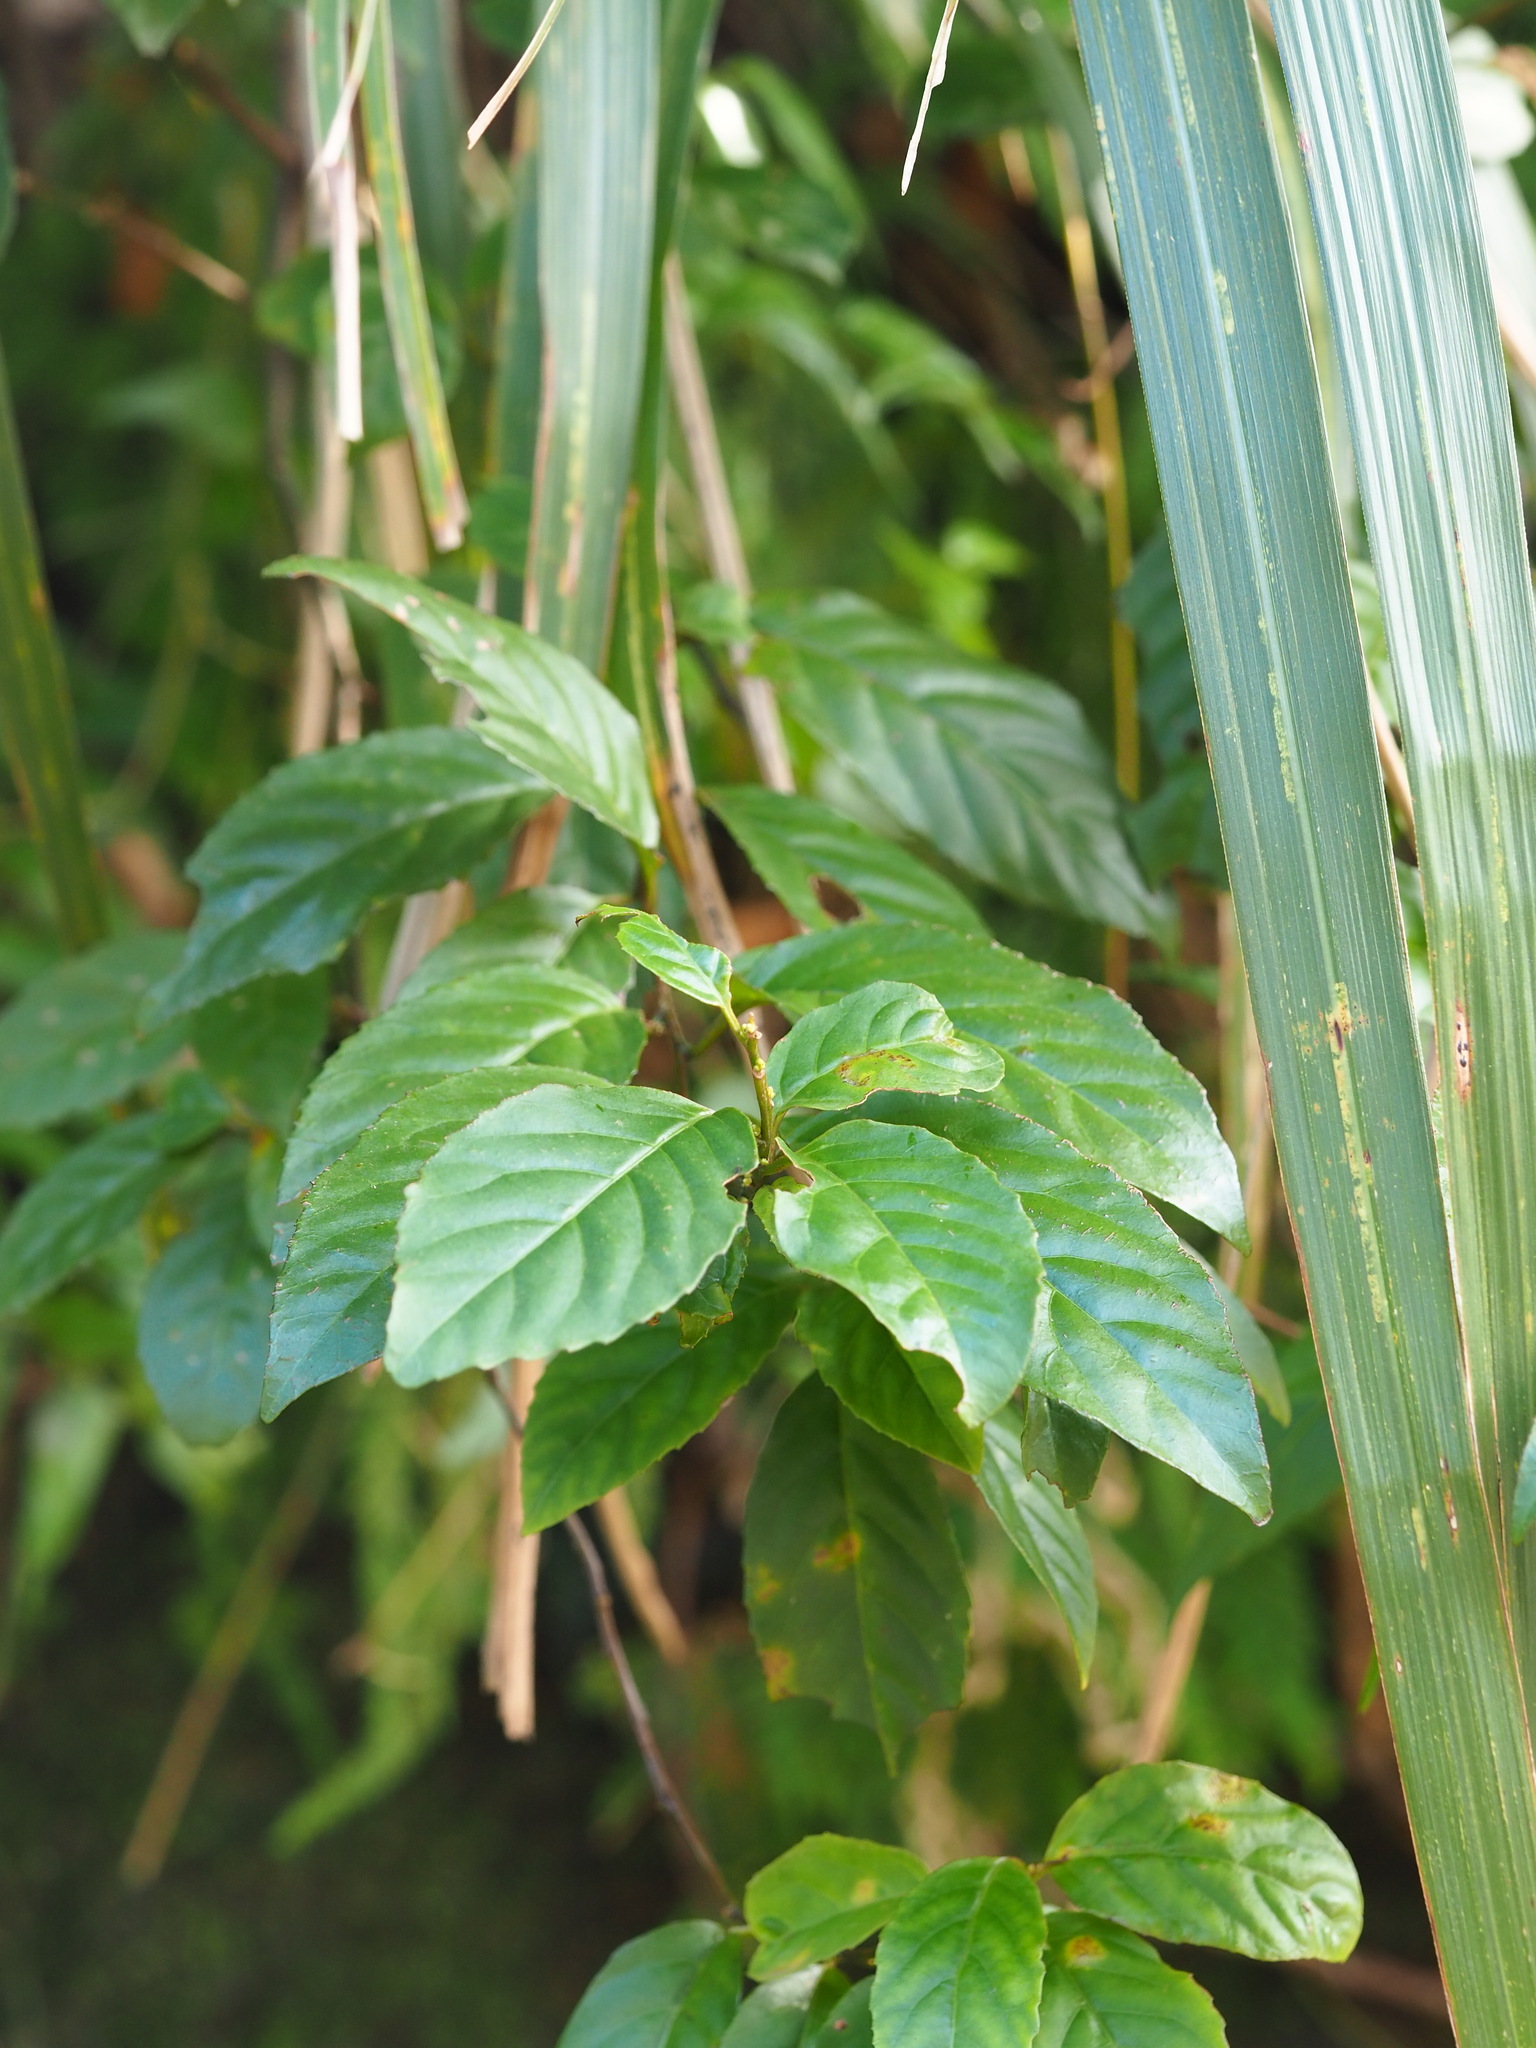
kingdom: Plantae
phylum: Tracheophyta
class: Magnoliopsida
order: Ericales
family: Primulaceae
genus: Maesa
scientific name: Maesa perlaria
